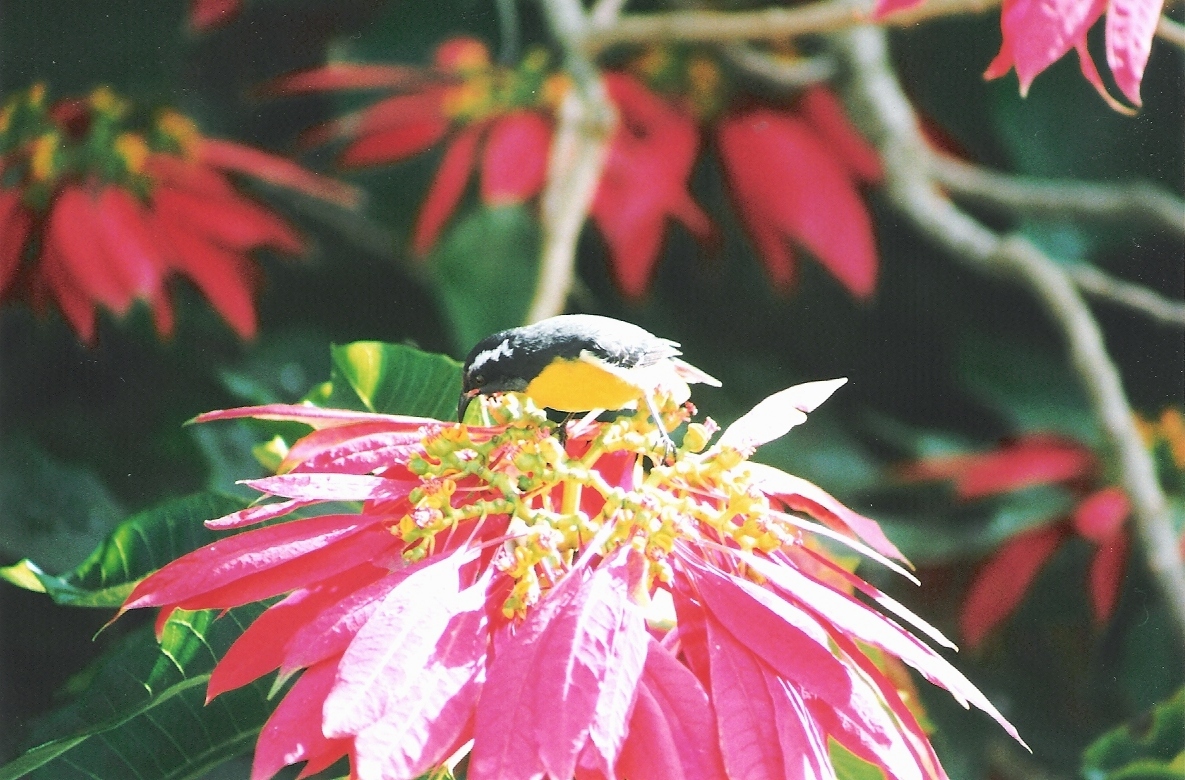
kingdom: Animalia
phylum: Chordata
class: Aves
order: Passeriformes
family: Thraupidae
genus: Coereba
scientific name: Coereba flaveola
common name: Bananaquit
